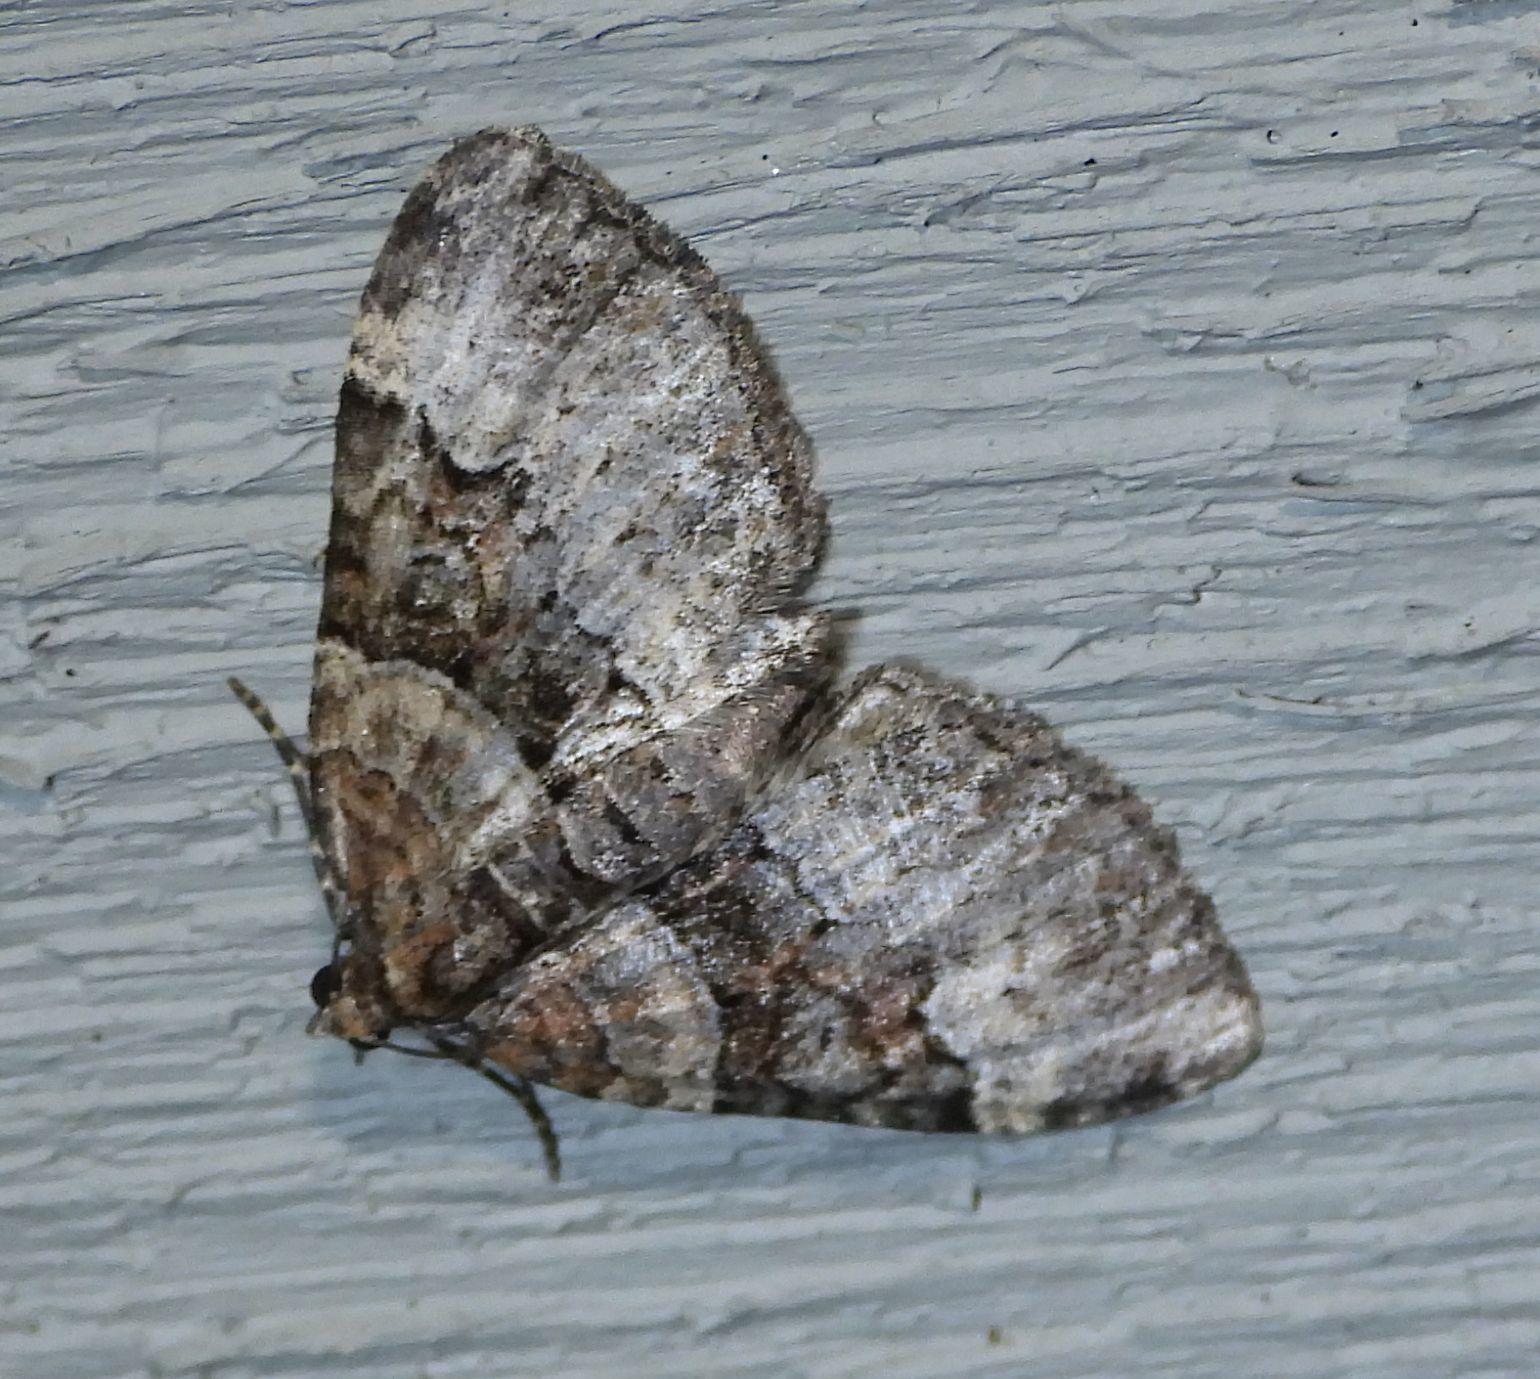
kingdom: Animalia
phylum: Arthropoda
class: Insecta
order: Lepidoptera
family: Geometridae
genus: Xanthorhoe
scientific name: Xanthorhoe lacustrata
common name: Toothed brown carpet
